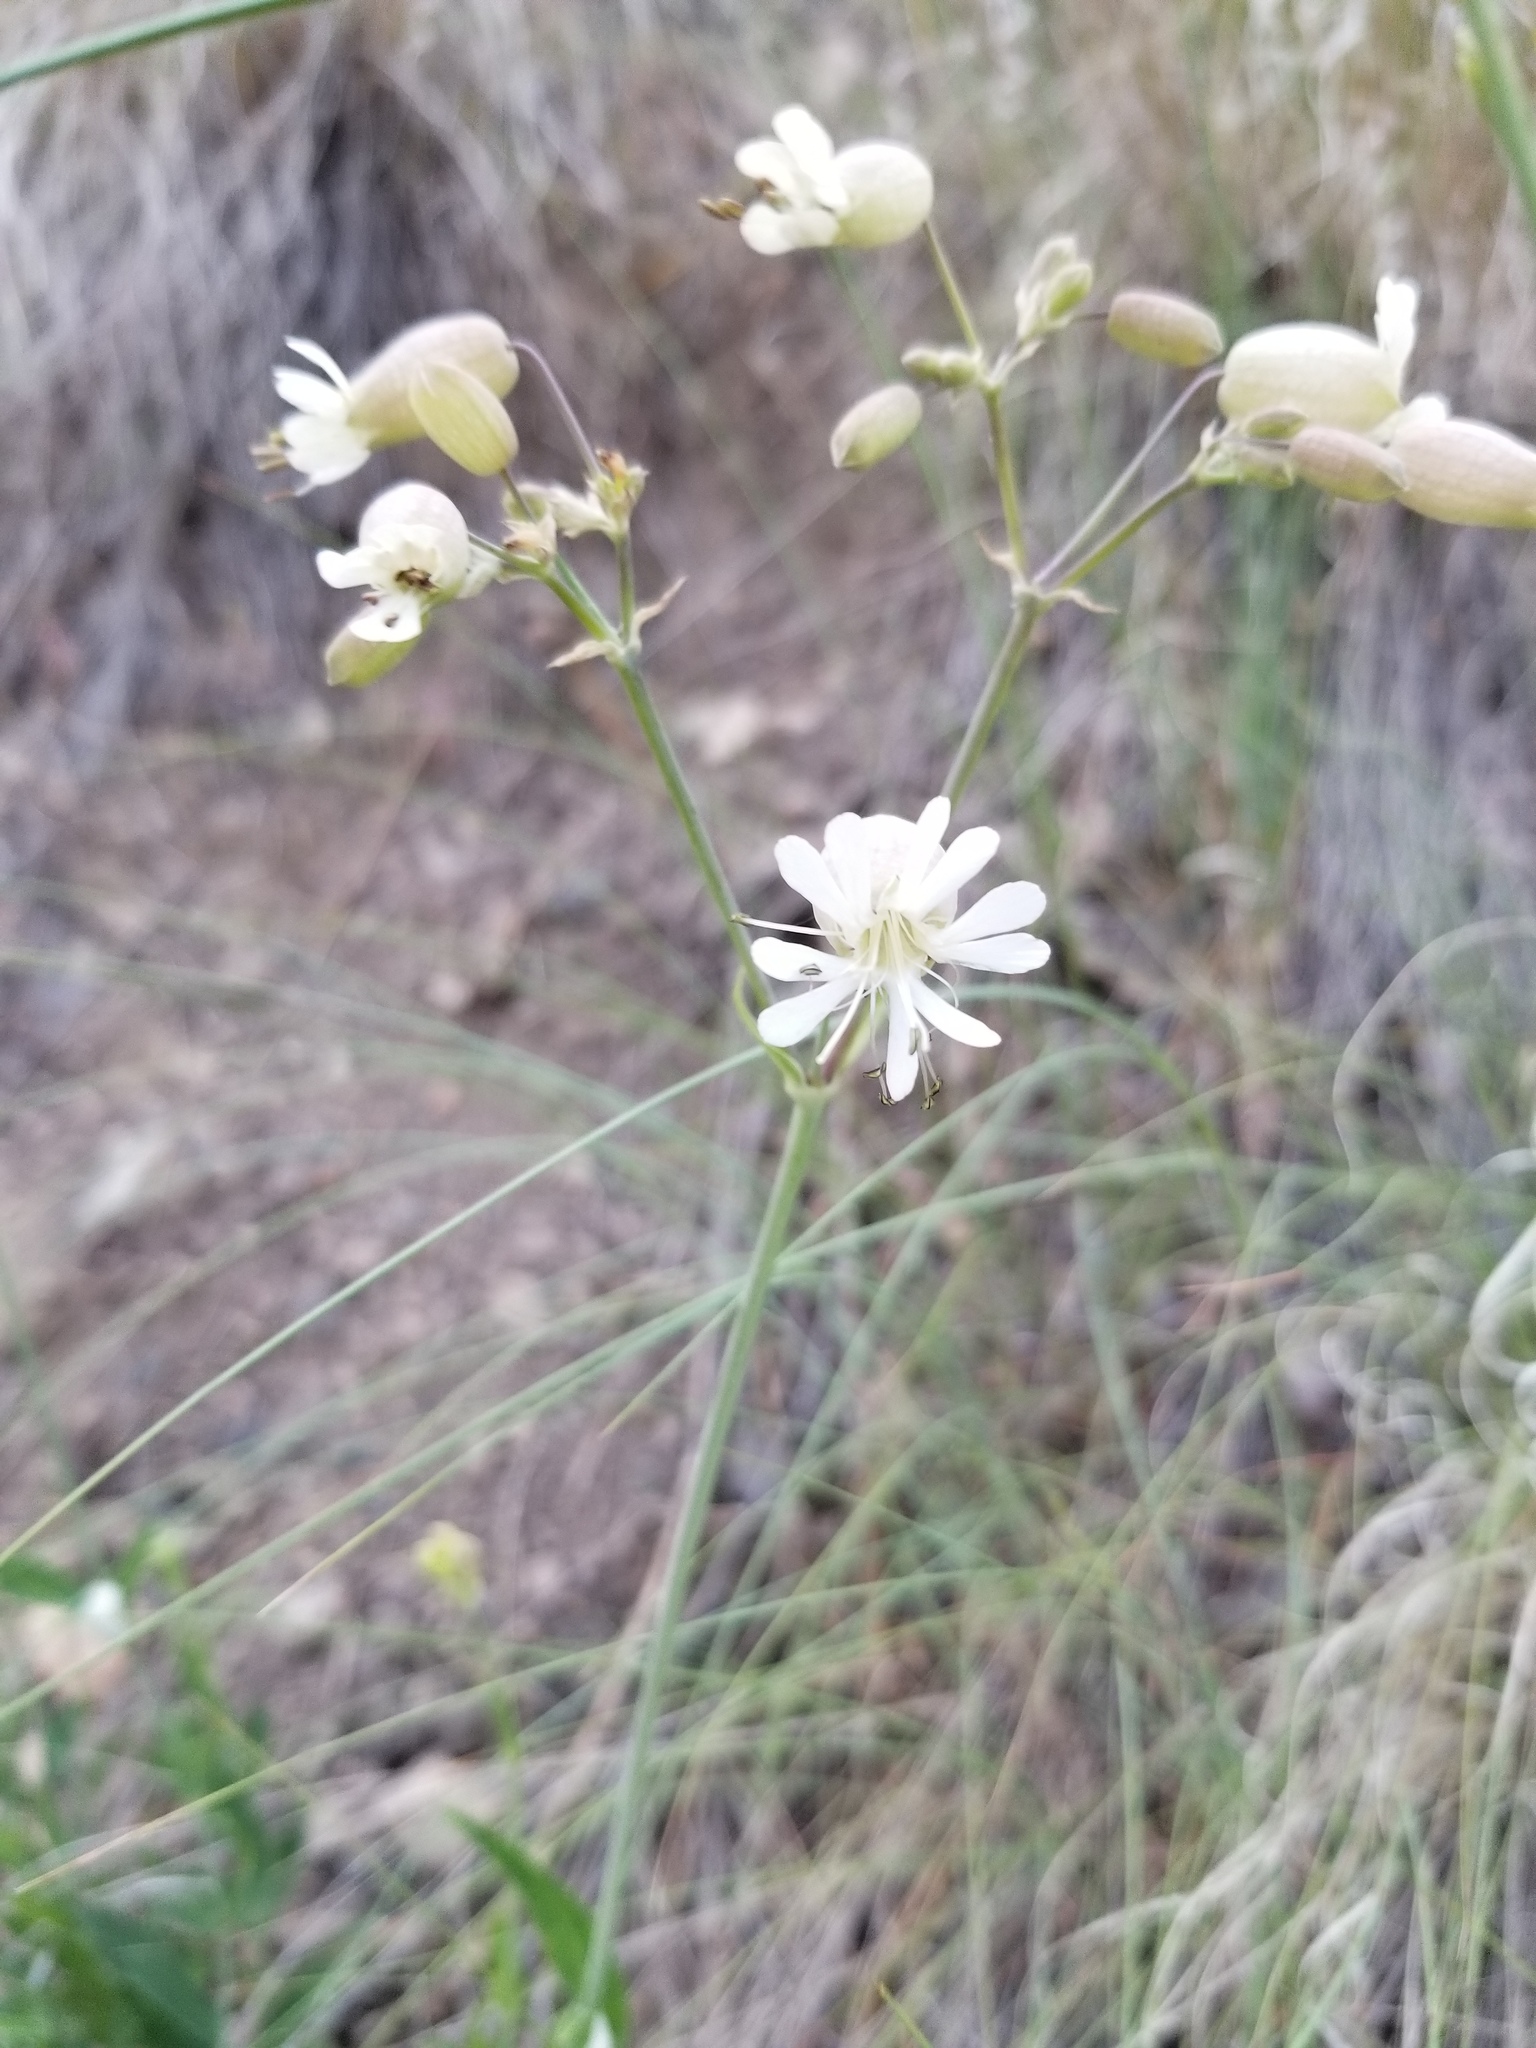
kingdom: Plantae
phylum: Tracheophyta
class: Magnoliopsida
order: Caryophyllales
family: Caryophyllaceae
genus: Silene
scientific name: Silene vulgaris
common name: Bladder campion
